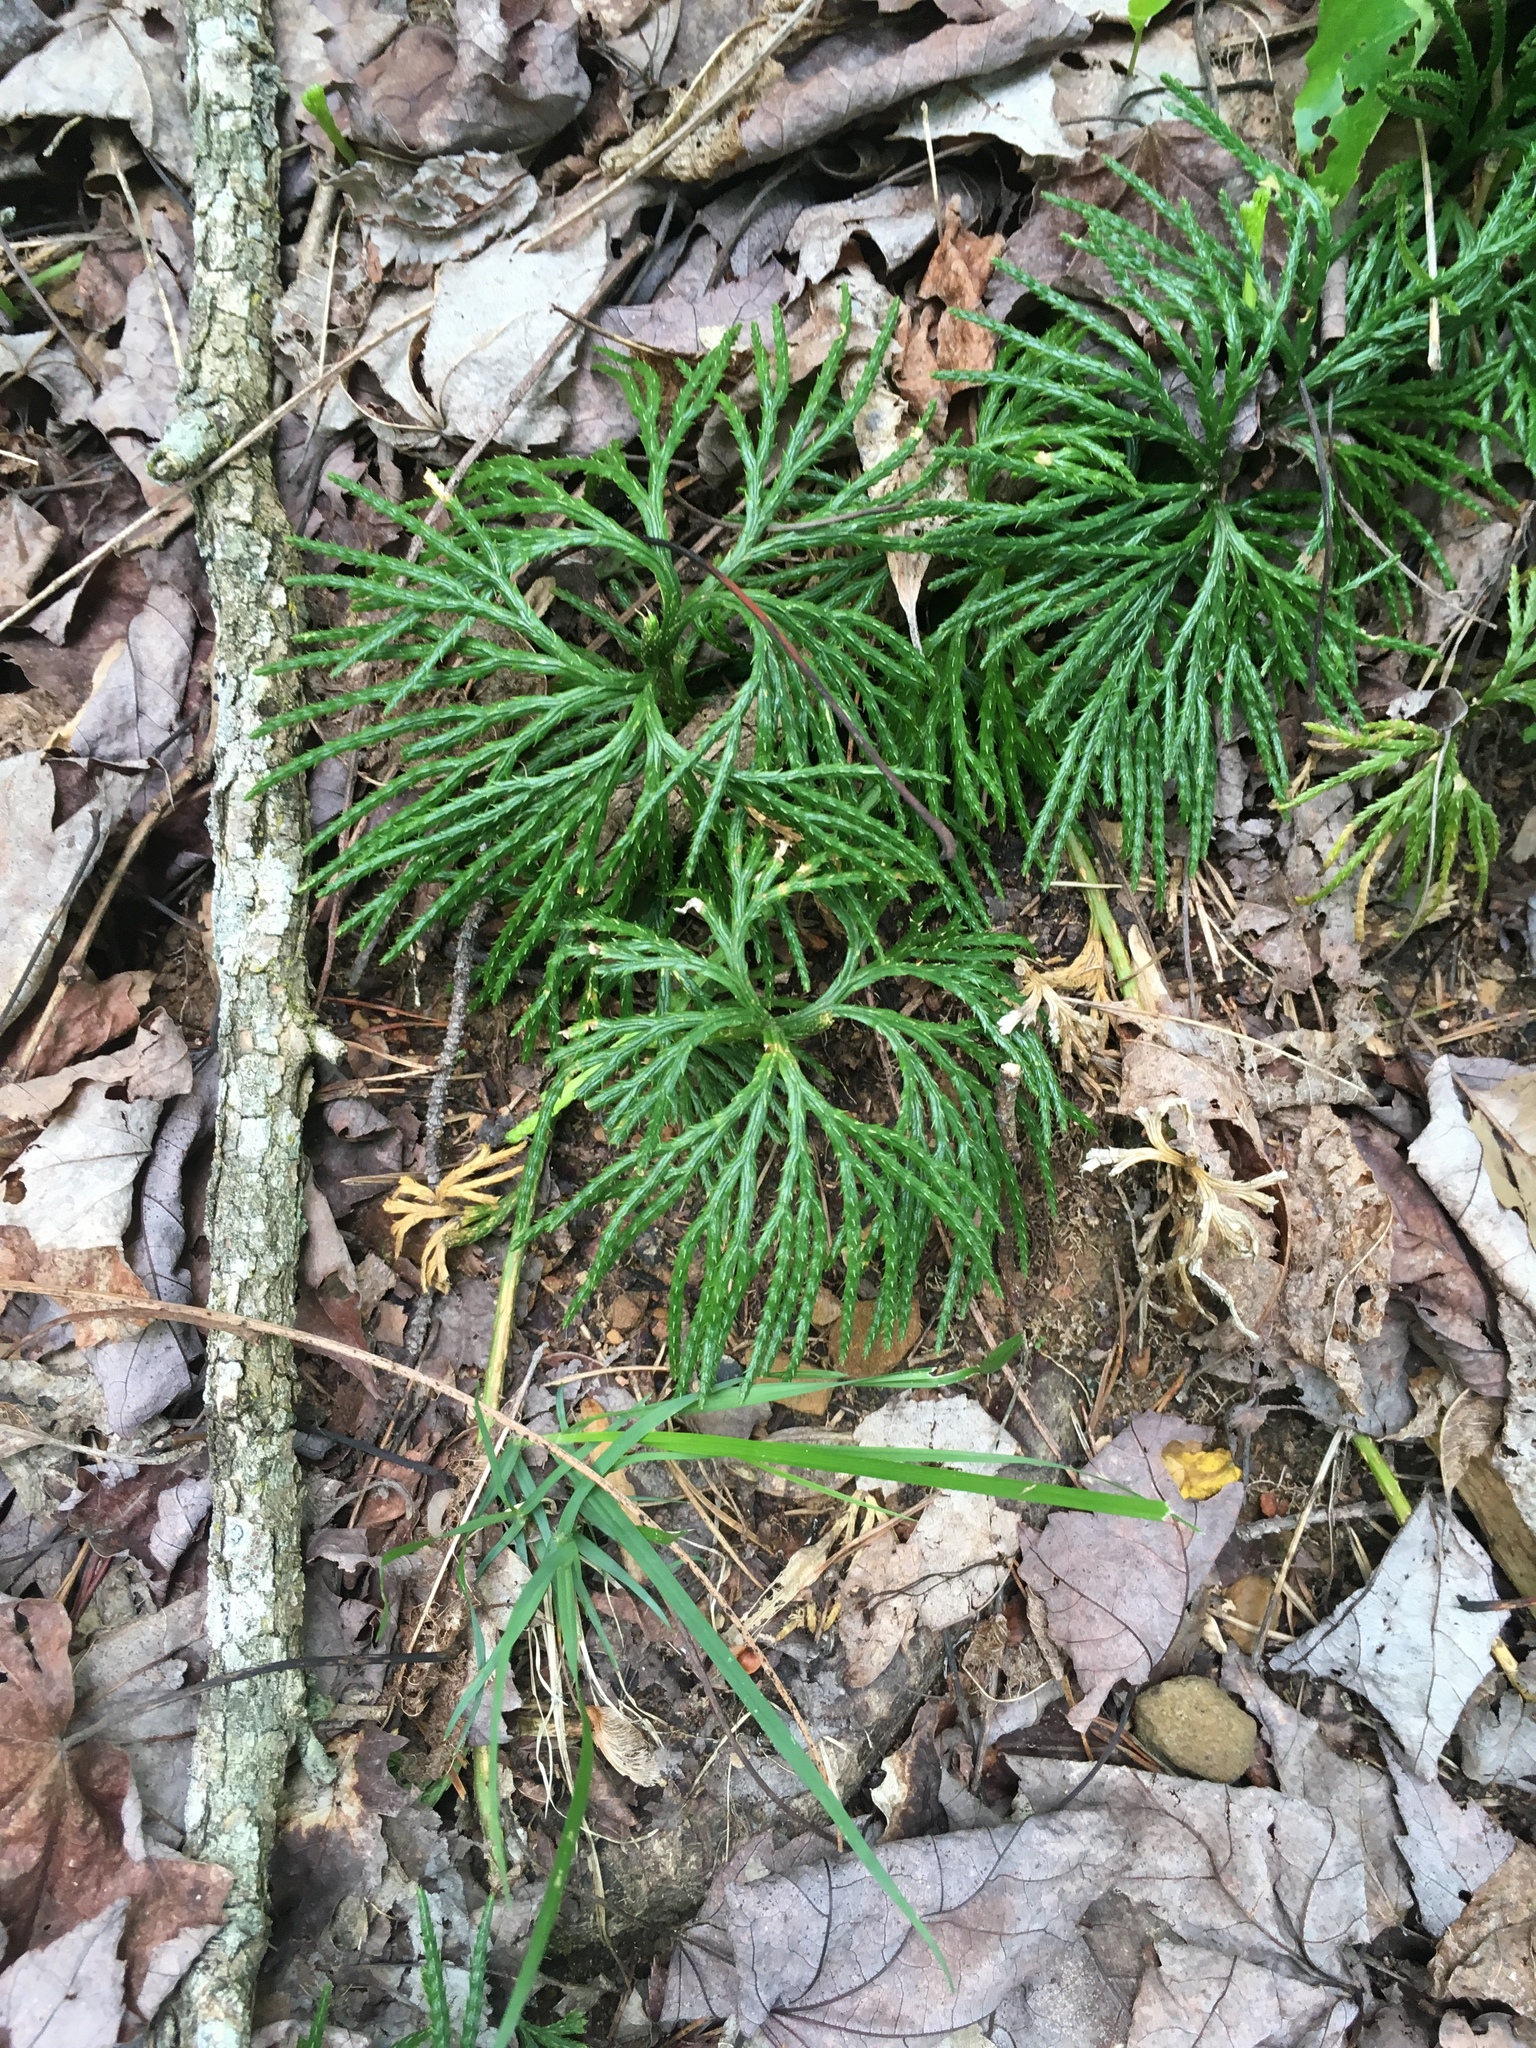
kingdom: Plantae
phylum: Tracheophyta
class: Lycopodiopsida
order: Lycopodiales
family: Lycopodiaceae
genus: Diphasiastrum
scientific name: Diphasiastrum digitatum
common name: Southern running-pine
